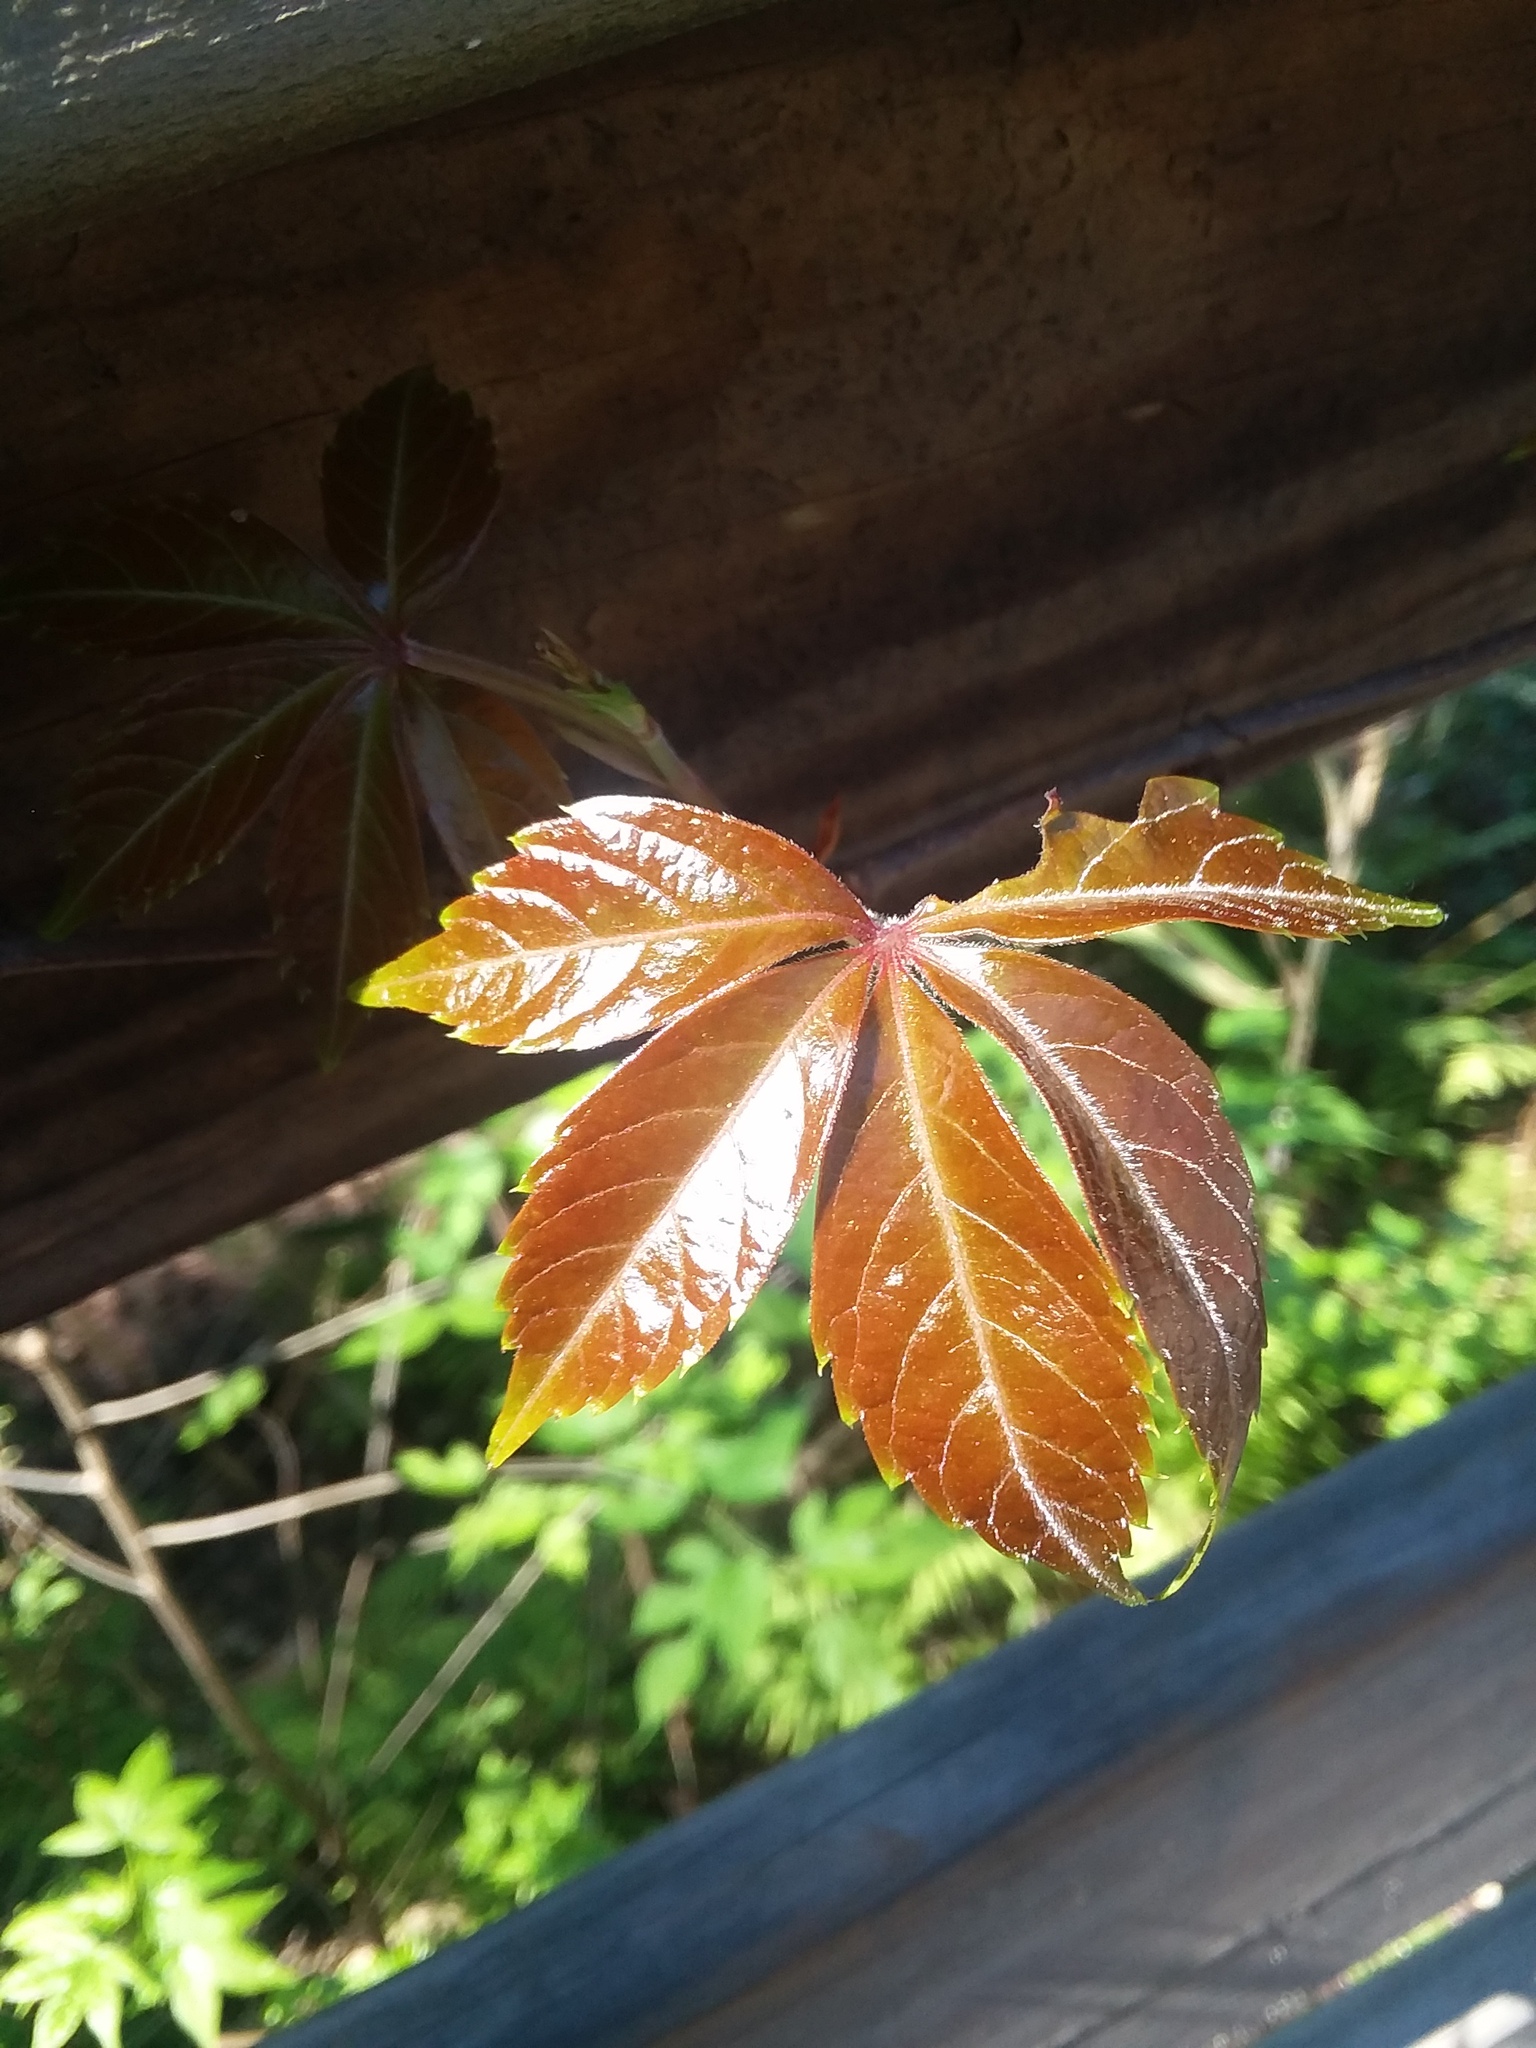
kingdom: Plantae
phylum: Tracheophyta
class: Magnoliopsida
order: Vitales
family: Vitaceae
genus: Parthenocissus
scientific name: Parthenocissus quinquefolia
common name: Virginia-creeper
